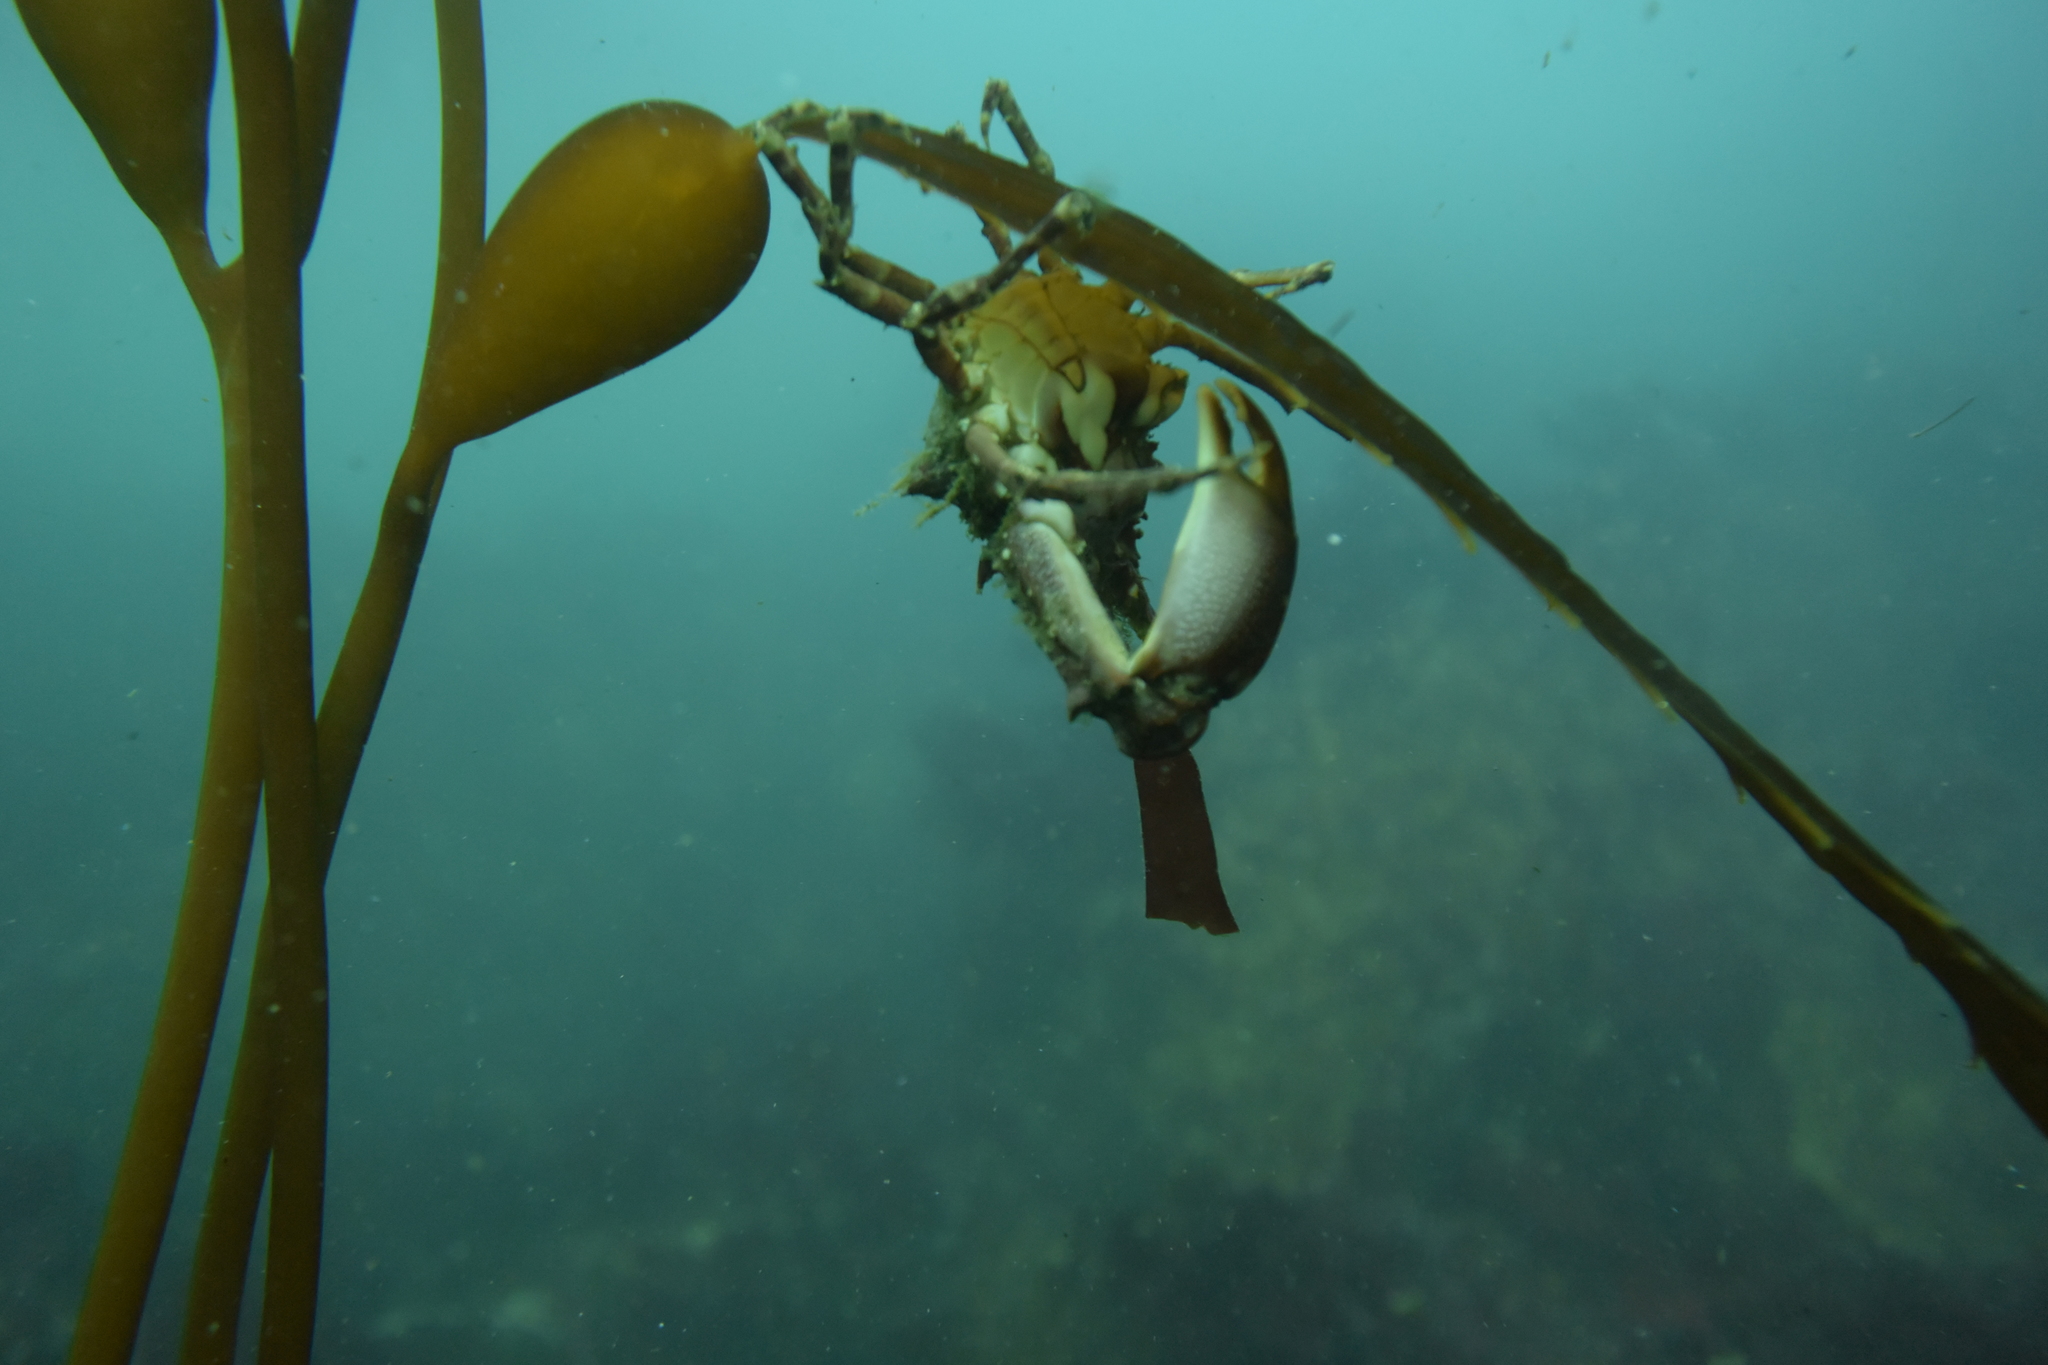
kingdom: Animalia
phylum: Arthropoda
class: Malacostraca
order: Decapoda
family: Epialtidae
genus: Pugettia
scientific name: Pugettia richii
